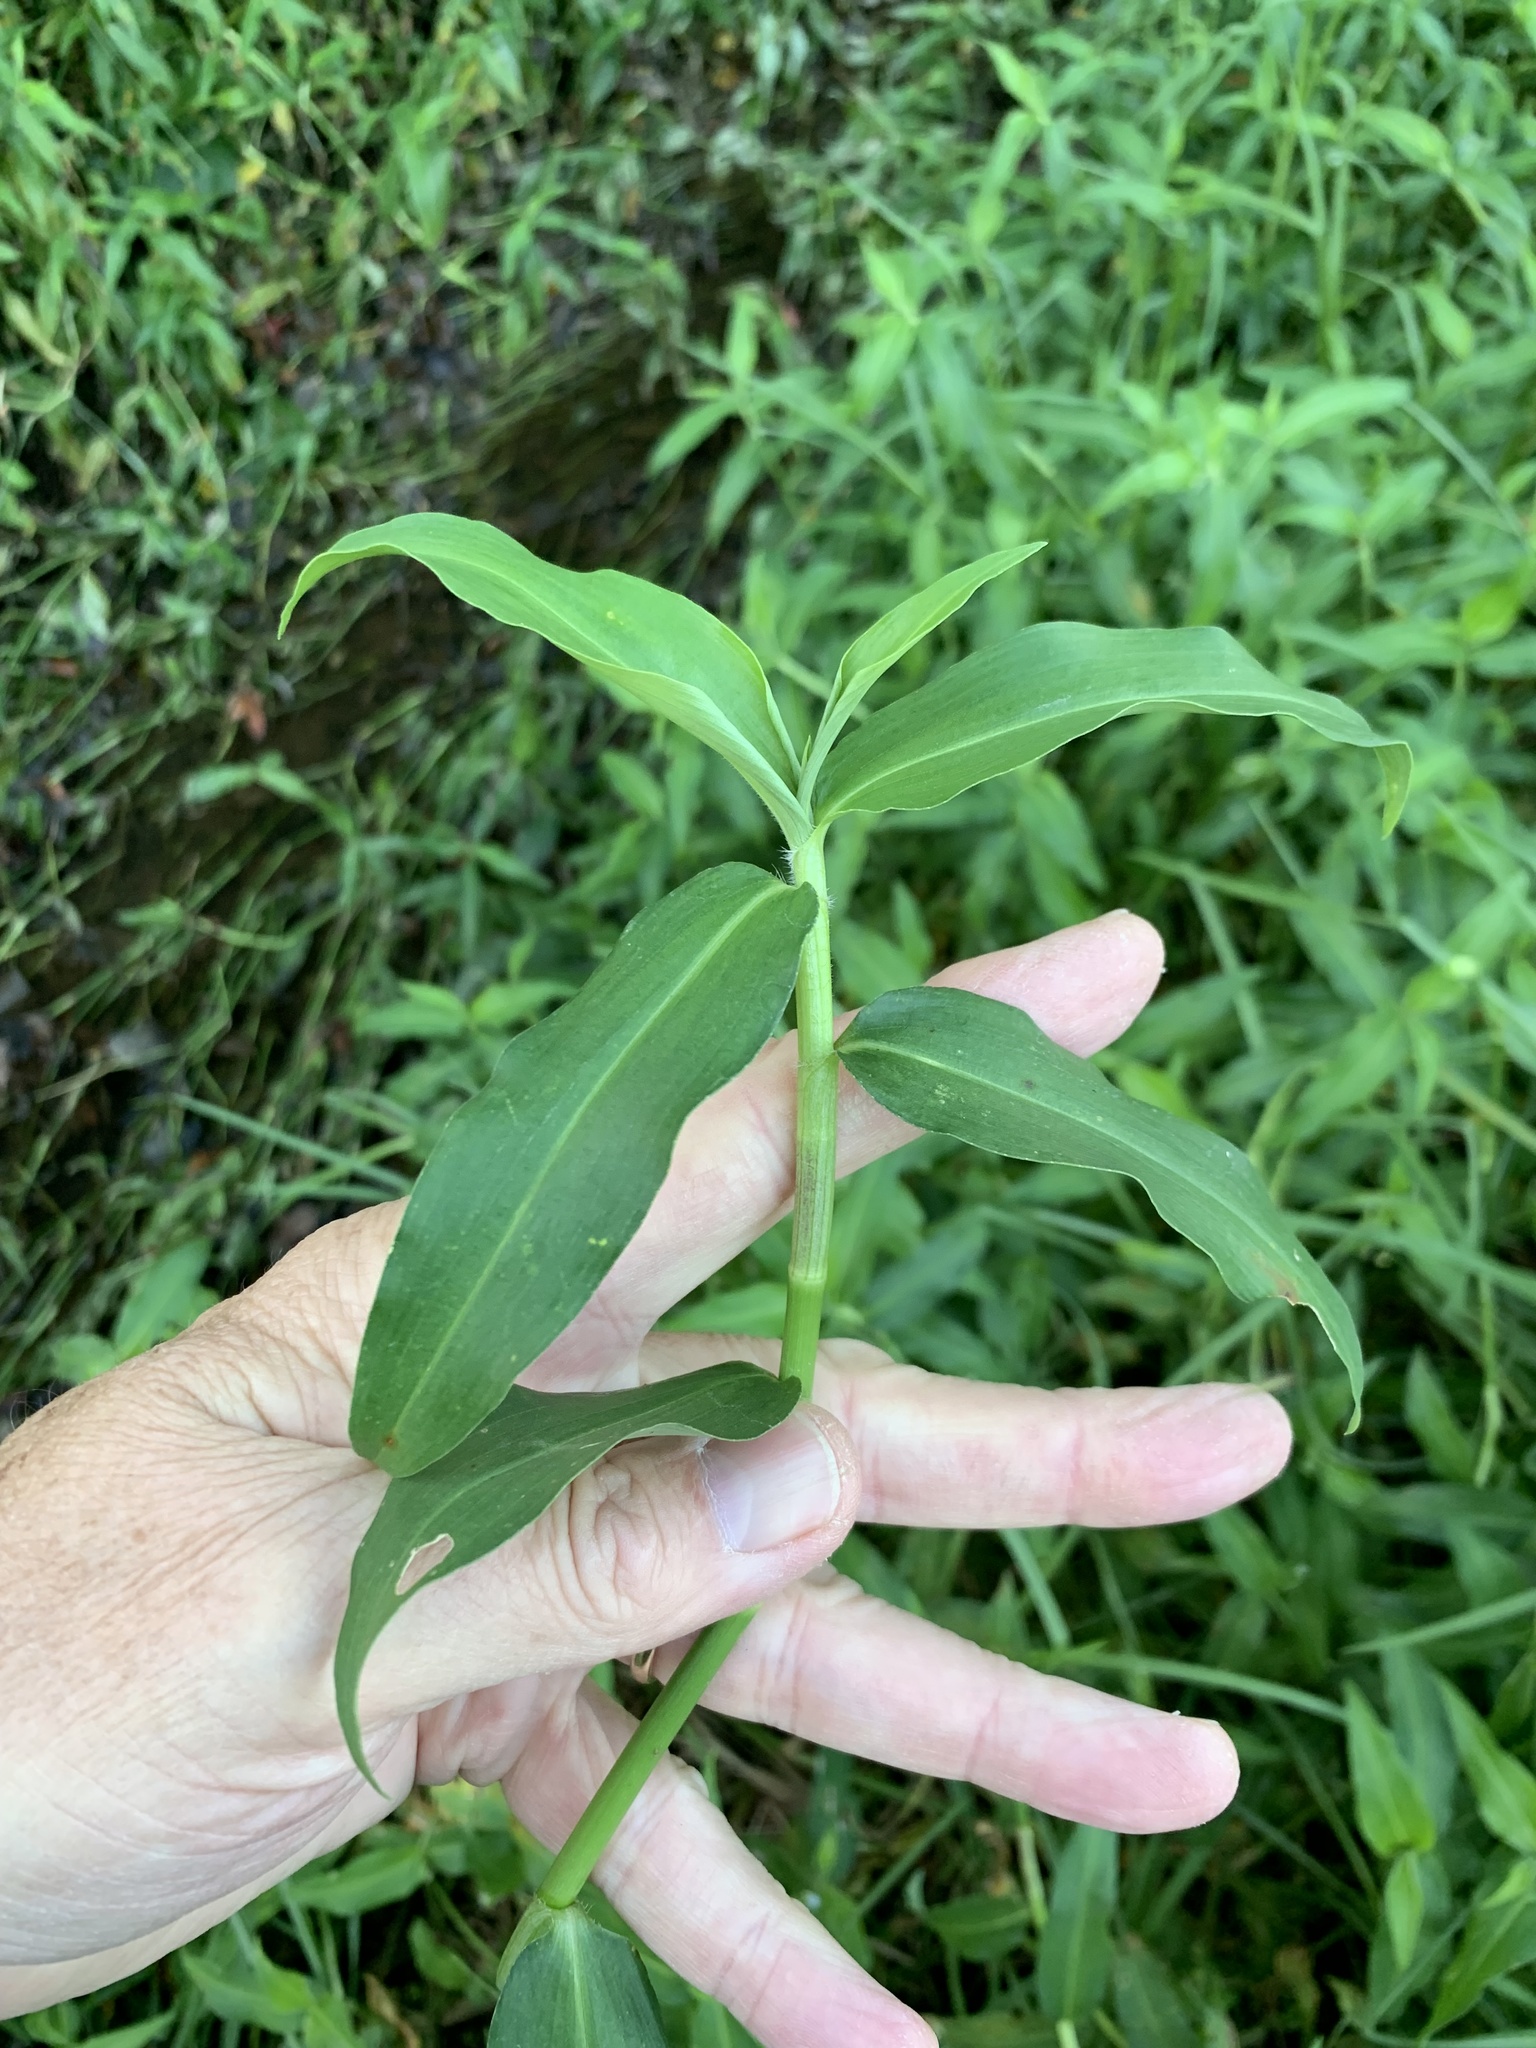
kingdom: Plantae
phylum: Tracheophyta
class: Liliopsida
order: Commelinales
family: Commelinaceae
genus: Commelina
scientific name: Commelina diffusa
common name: Climbing dayflower
